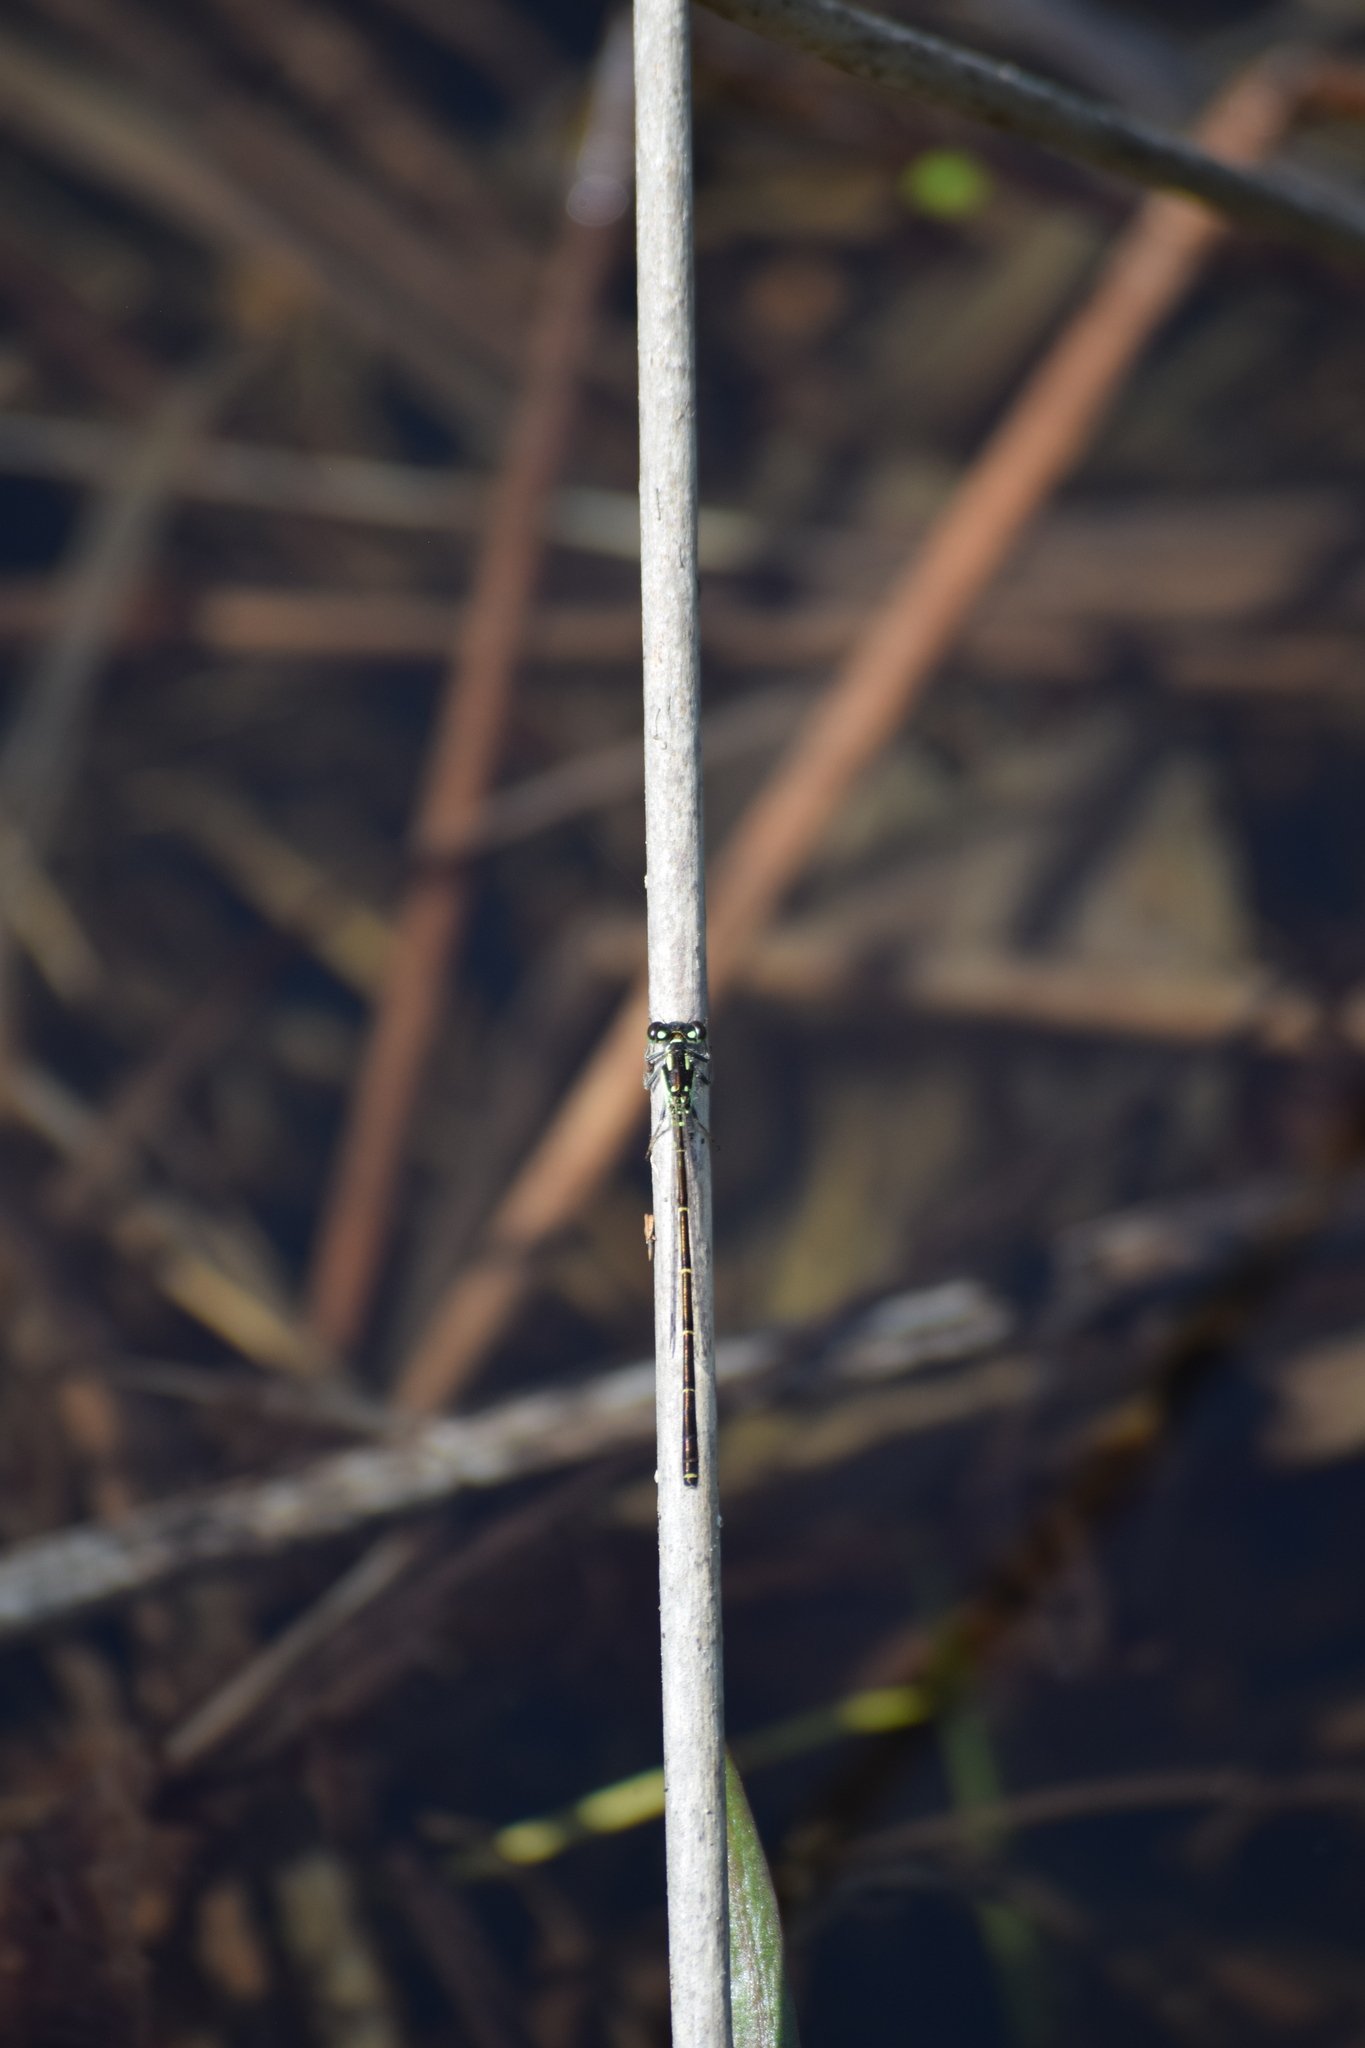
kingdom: Animalia
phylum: Arthropoda
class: Insecta
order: Odonata
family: Coenagrionidae
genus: Ischnura
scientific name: Ischnura posita
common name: Fragile forktail
